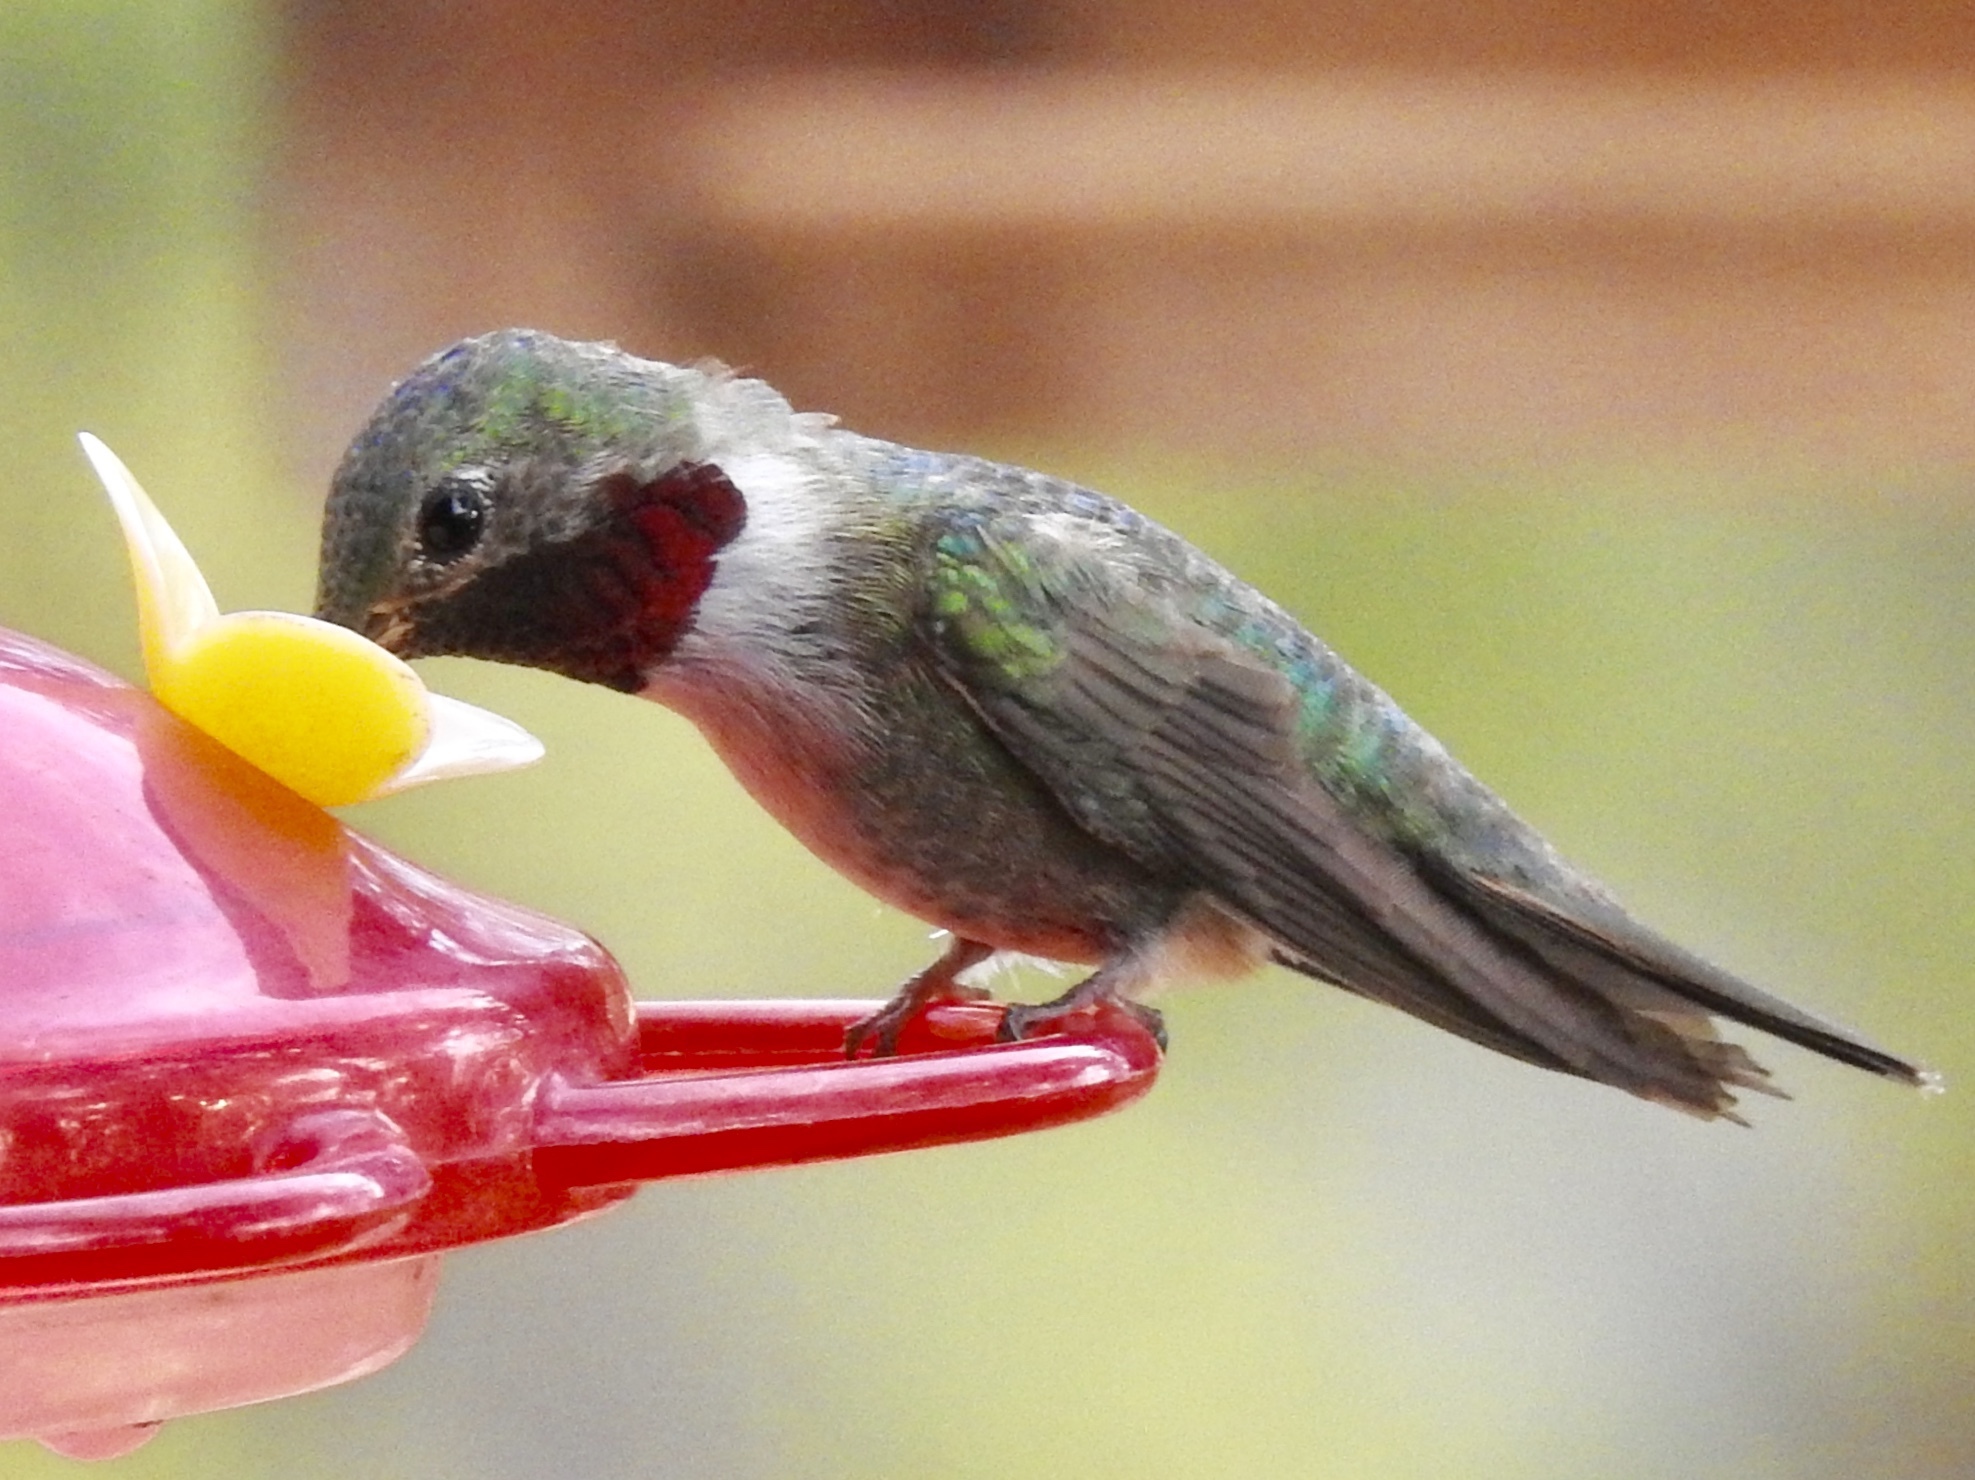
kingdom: Animalia
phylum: Chordata
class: Aves
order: Apodiformes
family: Trochilidae
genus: Selasphorus
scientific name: Selasphorus platycercus
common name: Broad-tailed hummingbird
